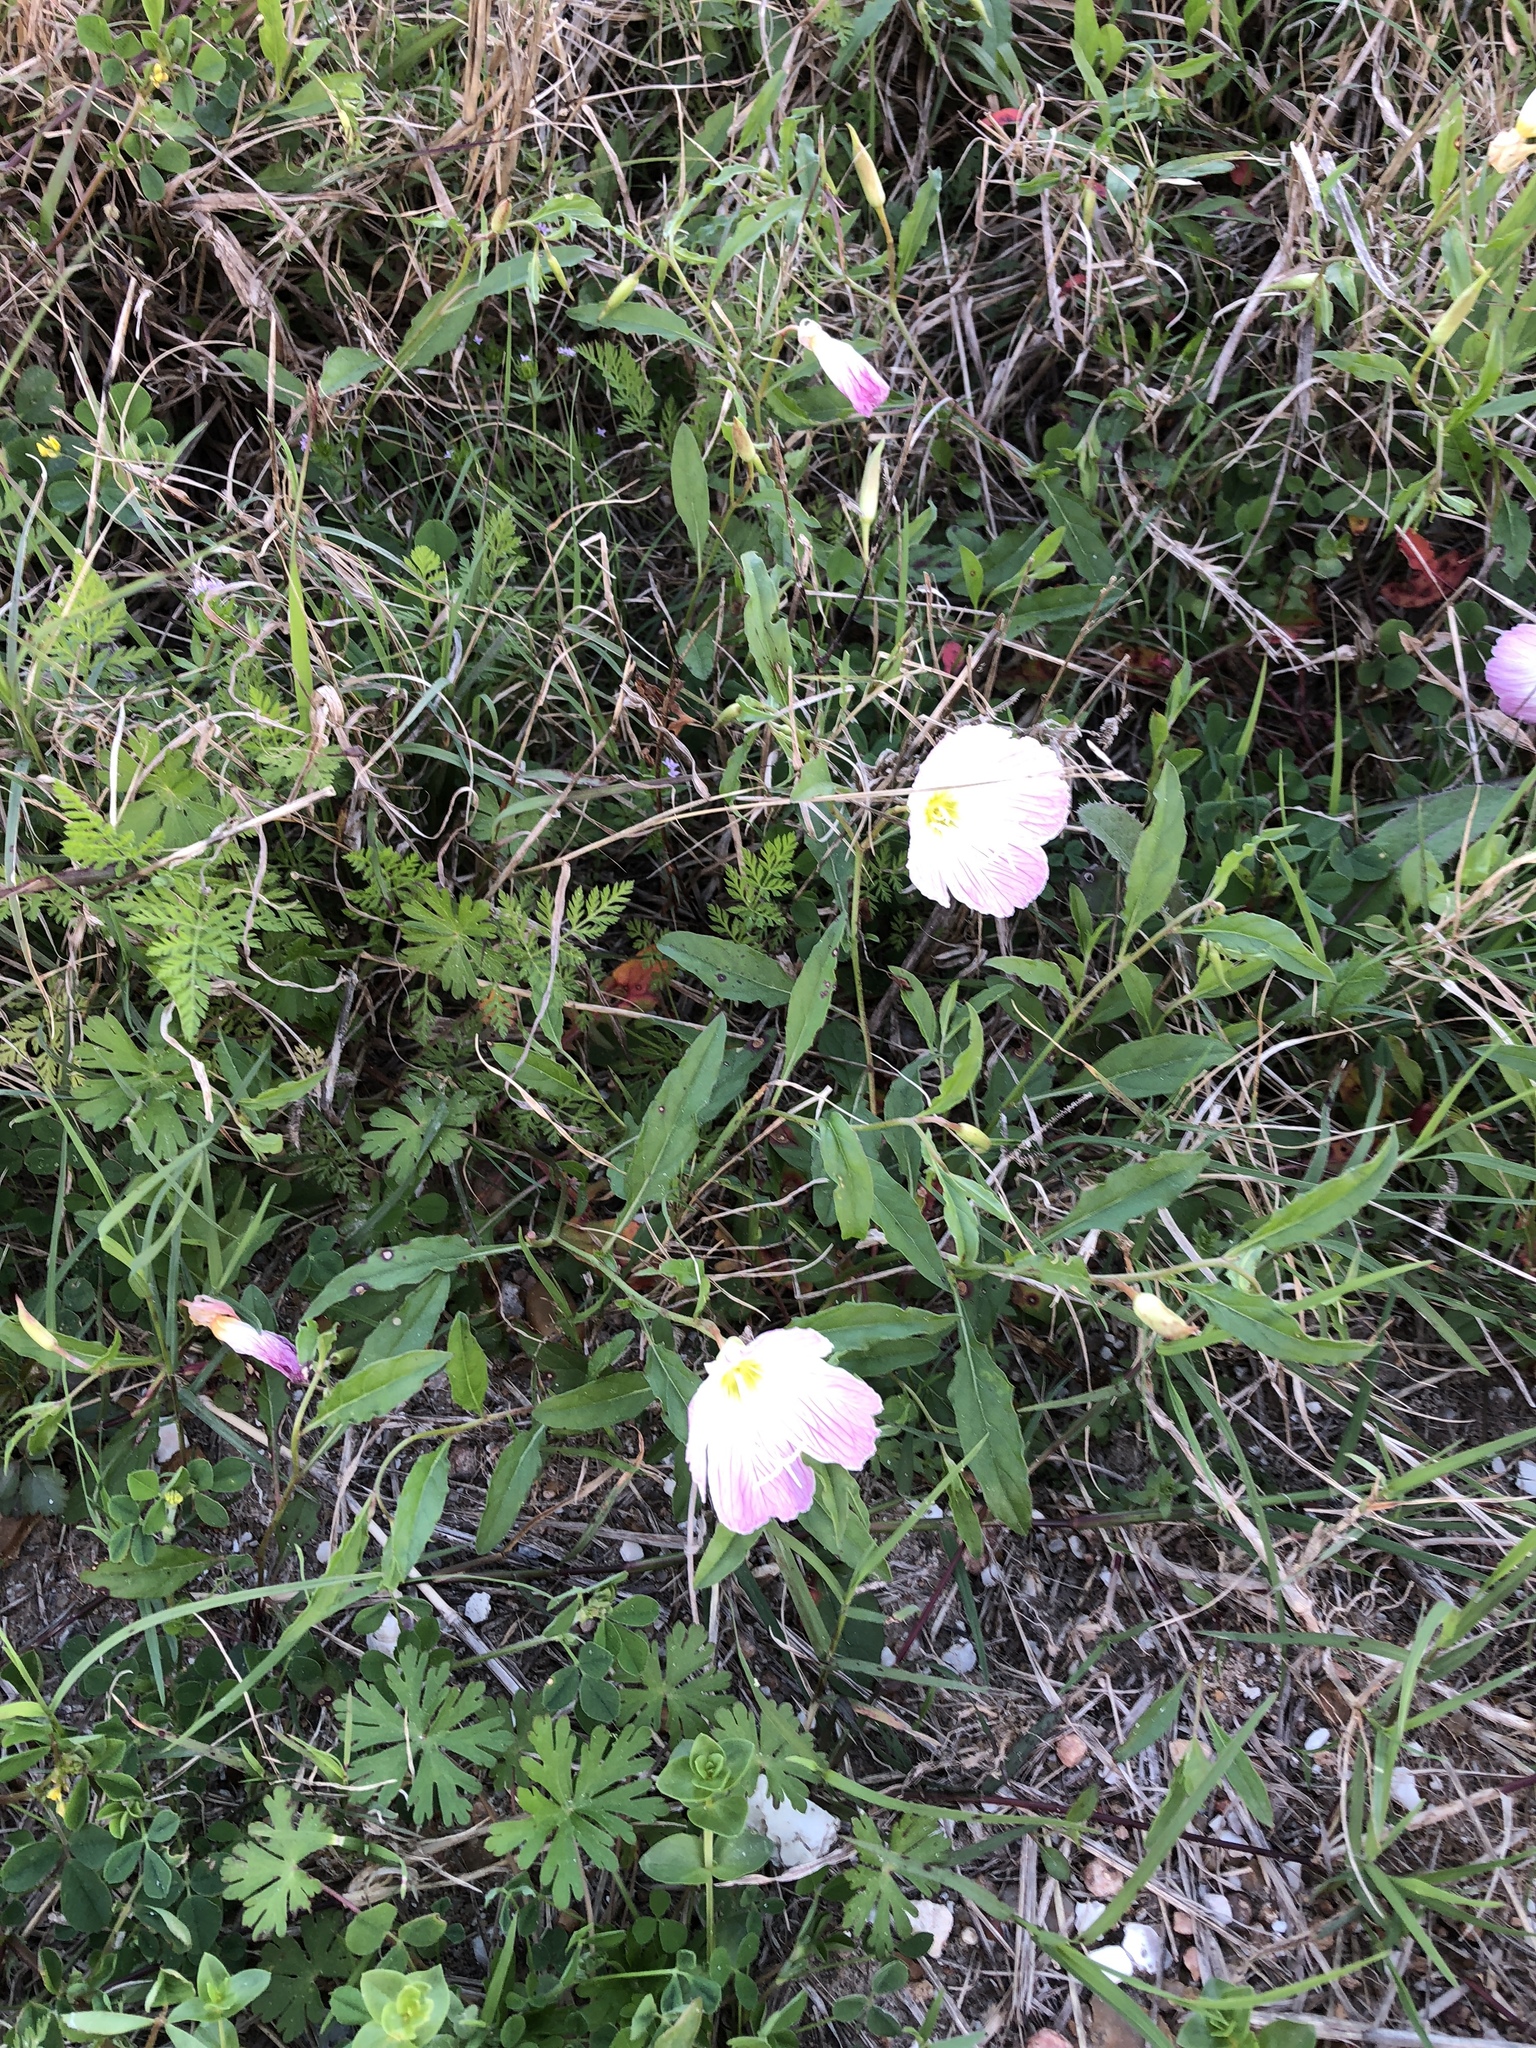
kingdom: Plantae
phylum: Tracheophyta
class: Magnoliopsida
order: Myrtales
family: Onagraceae
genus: Oenothera
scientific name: Oenothera speciosa
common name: White evening-primrose
